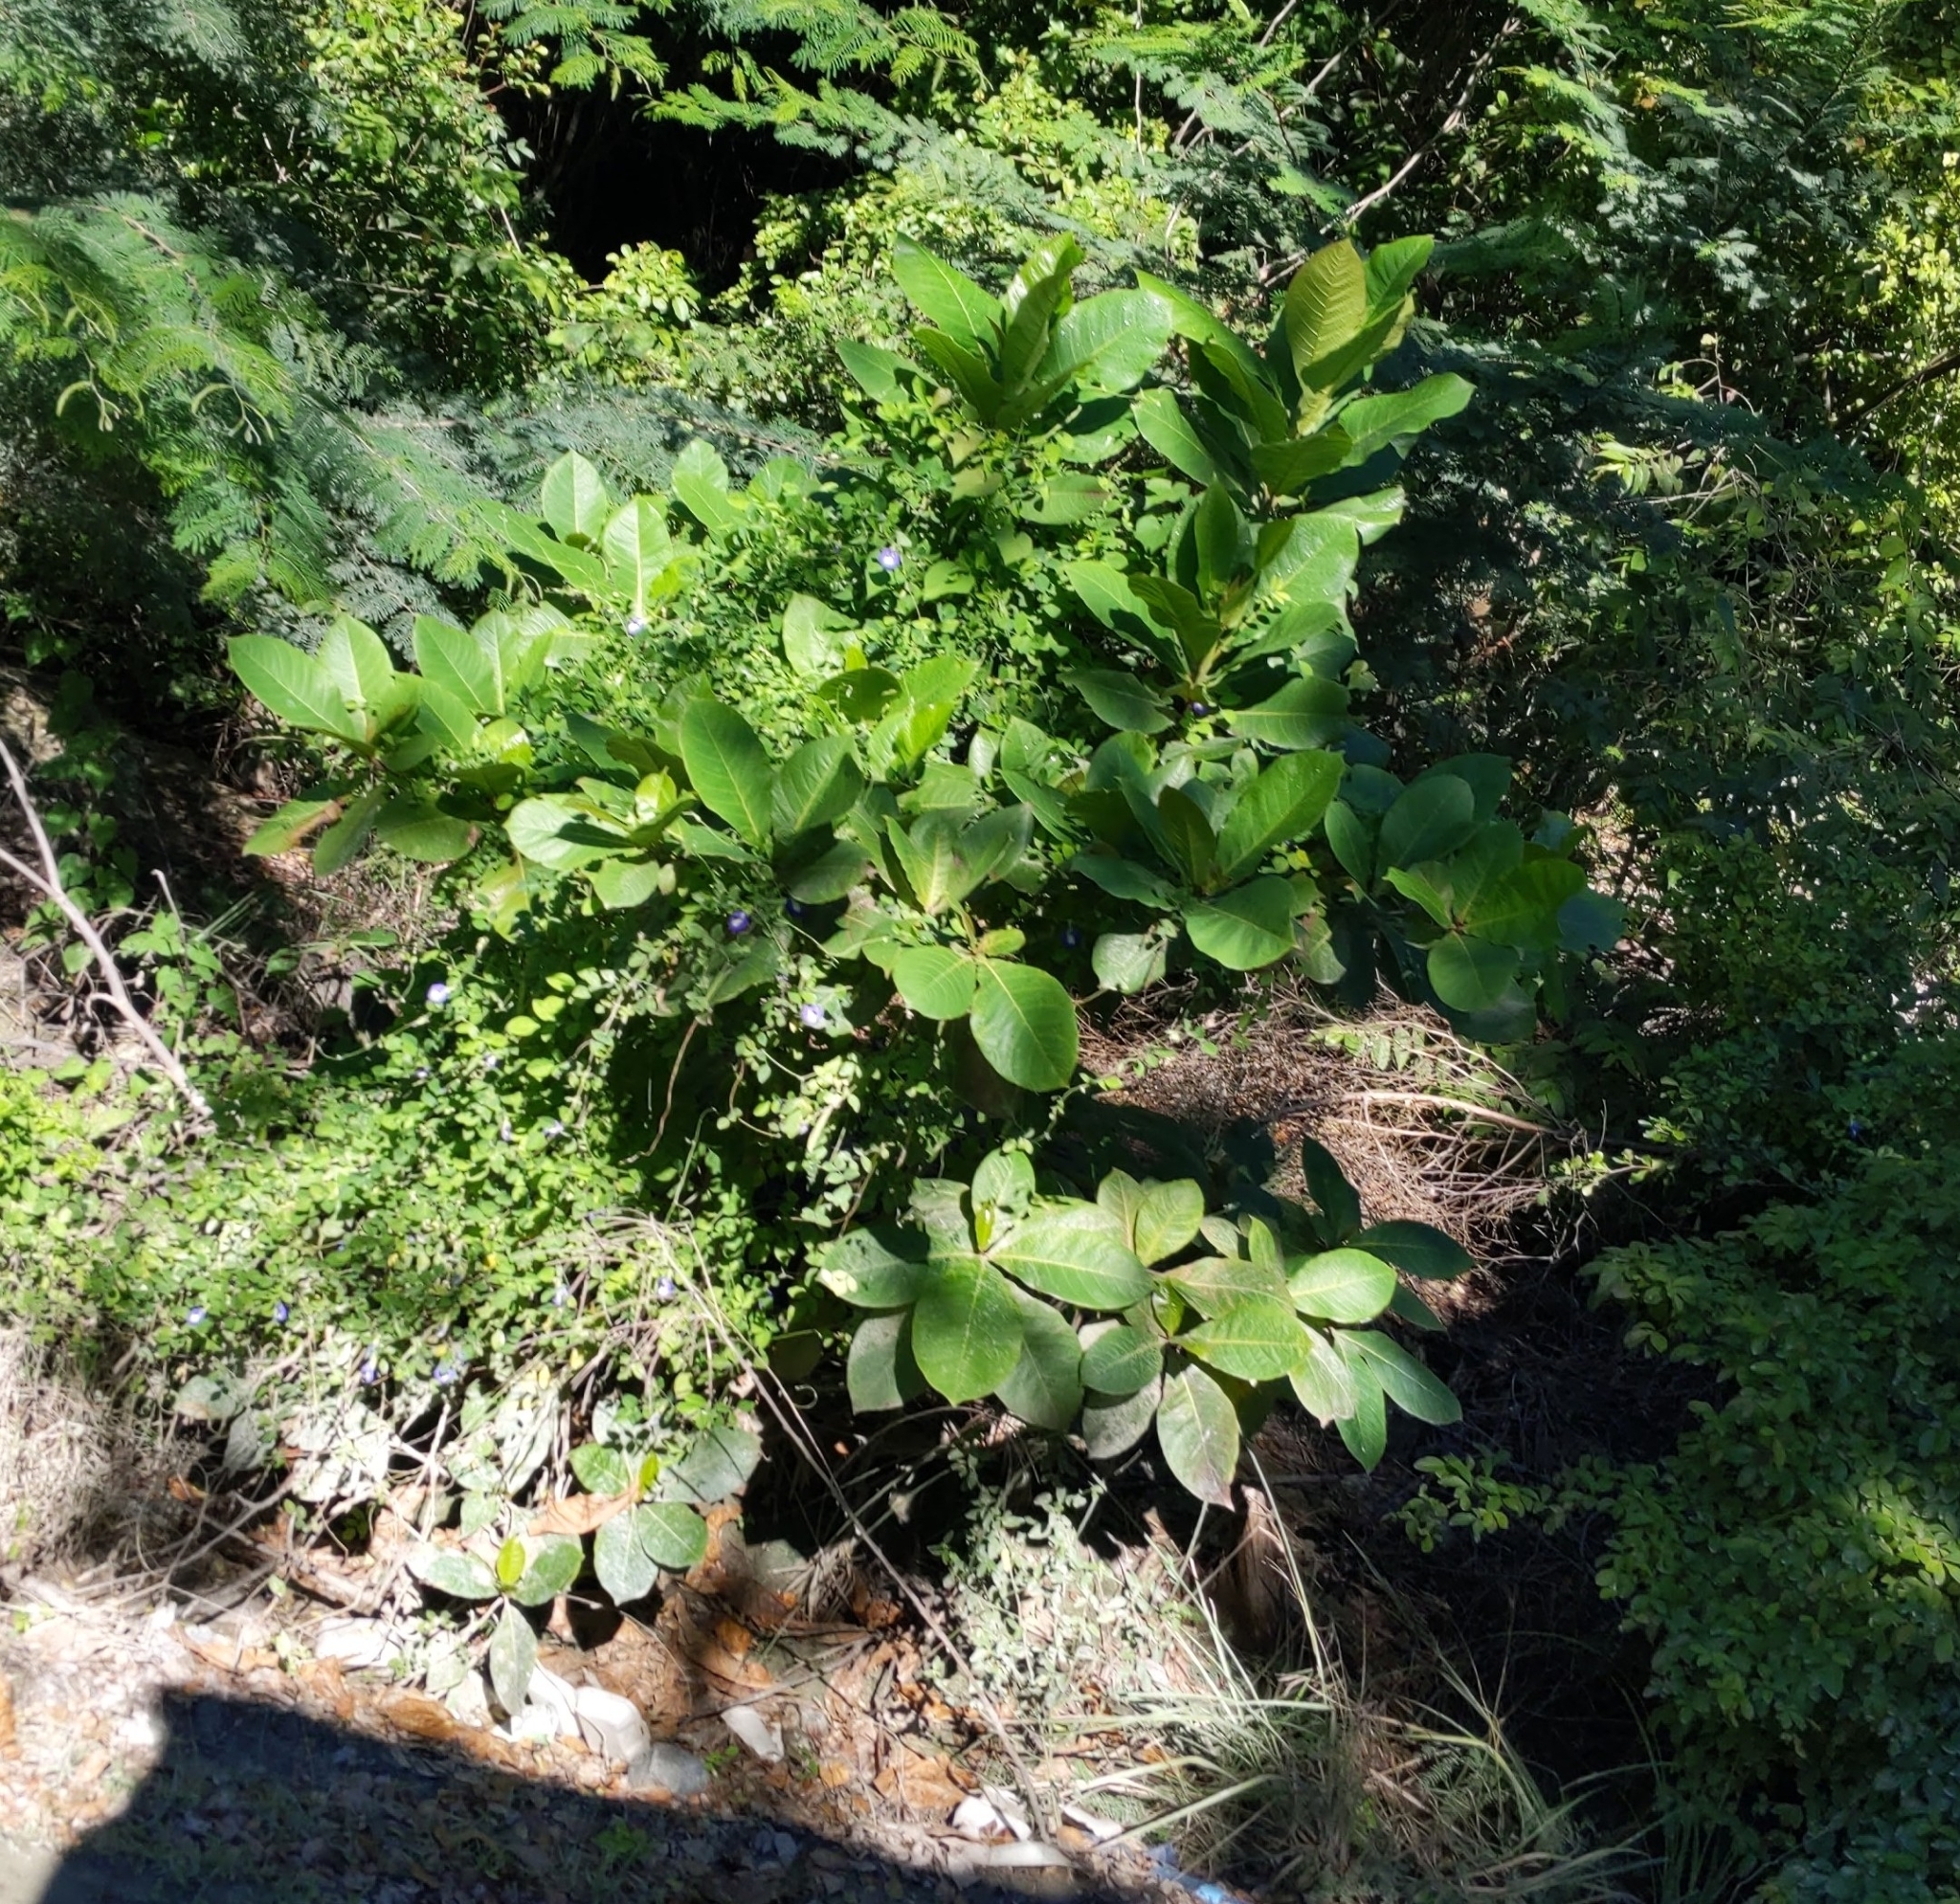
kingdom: Plantae
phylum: Tracheophyta
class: Magnoliopsida
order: Myrtales
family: Combretaceae
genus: Terminalia
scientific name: Terminalia catappa
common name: Tropical almond
